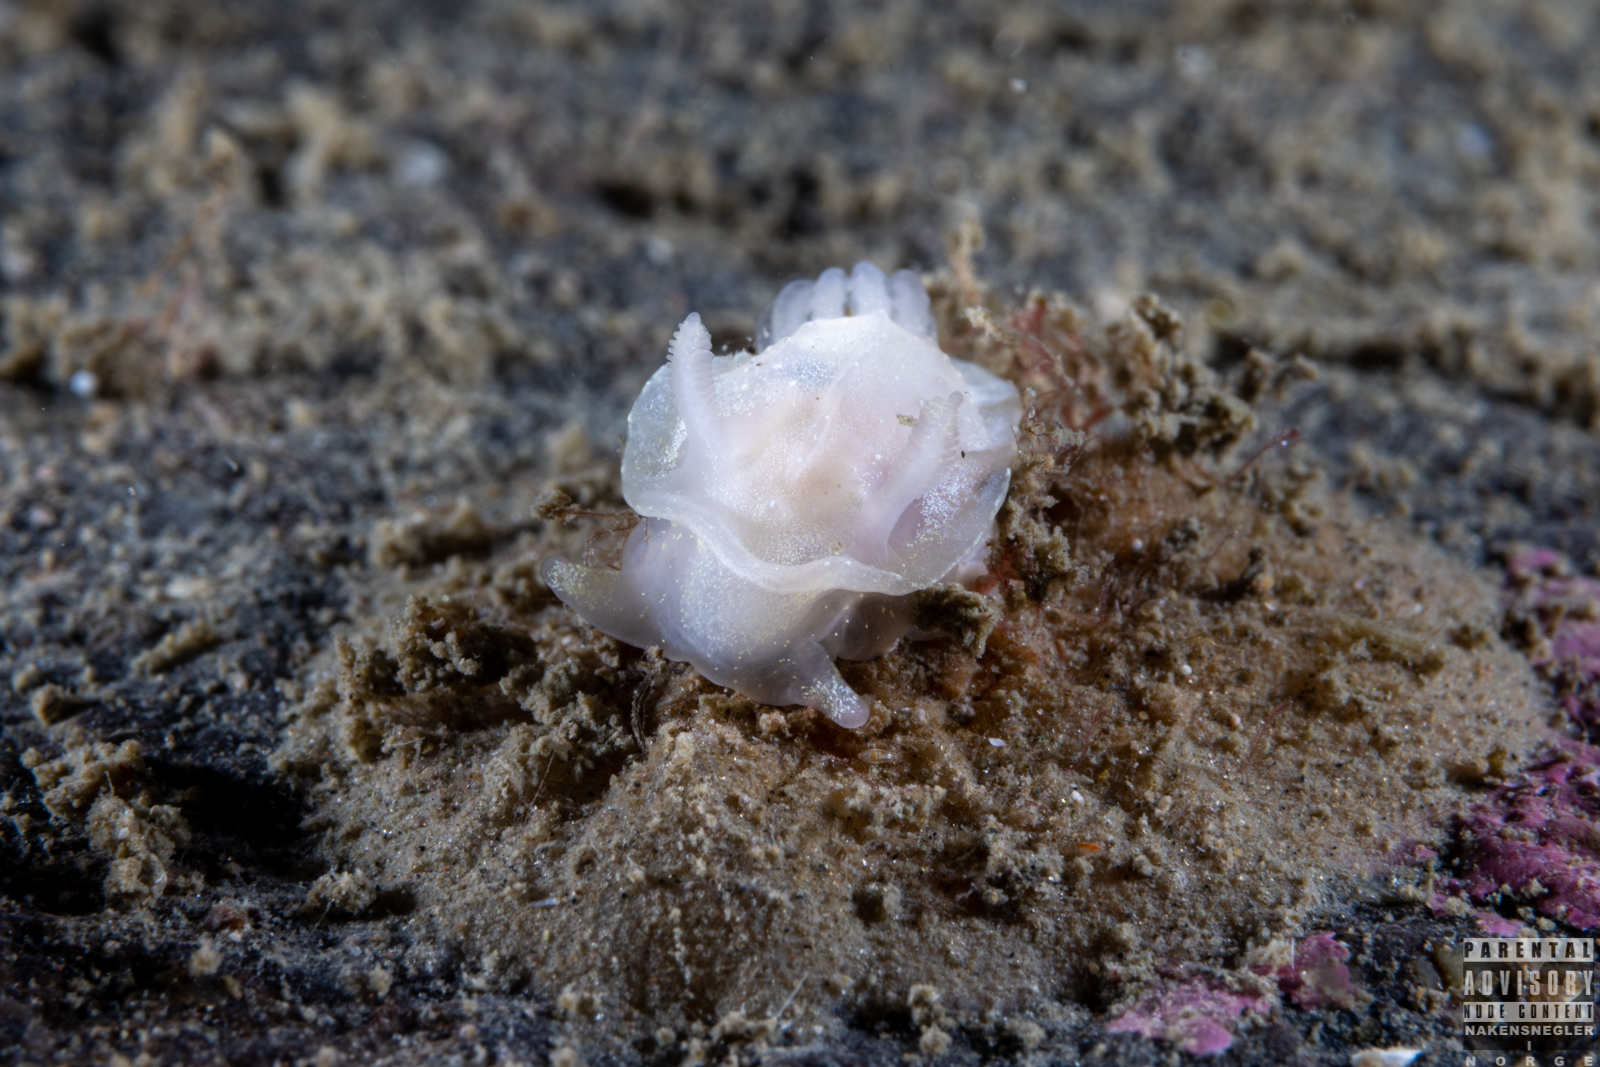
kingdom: Animalia
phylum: Mollusca
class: Gastropoda
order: Nudibranchia
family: Goniodorididae
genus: Okenia
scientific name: Okenia
